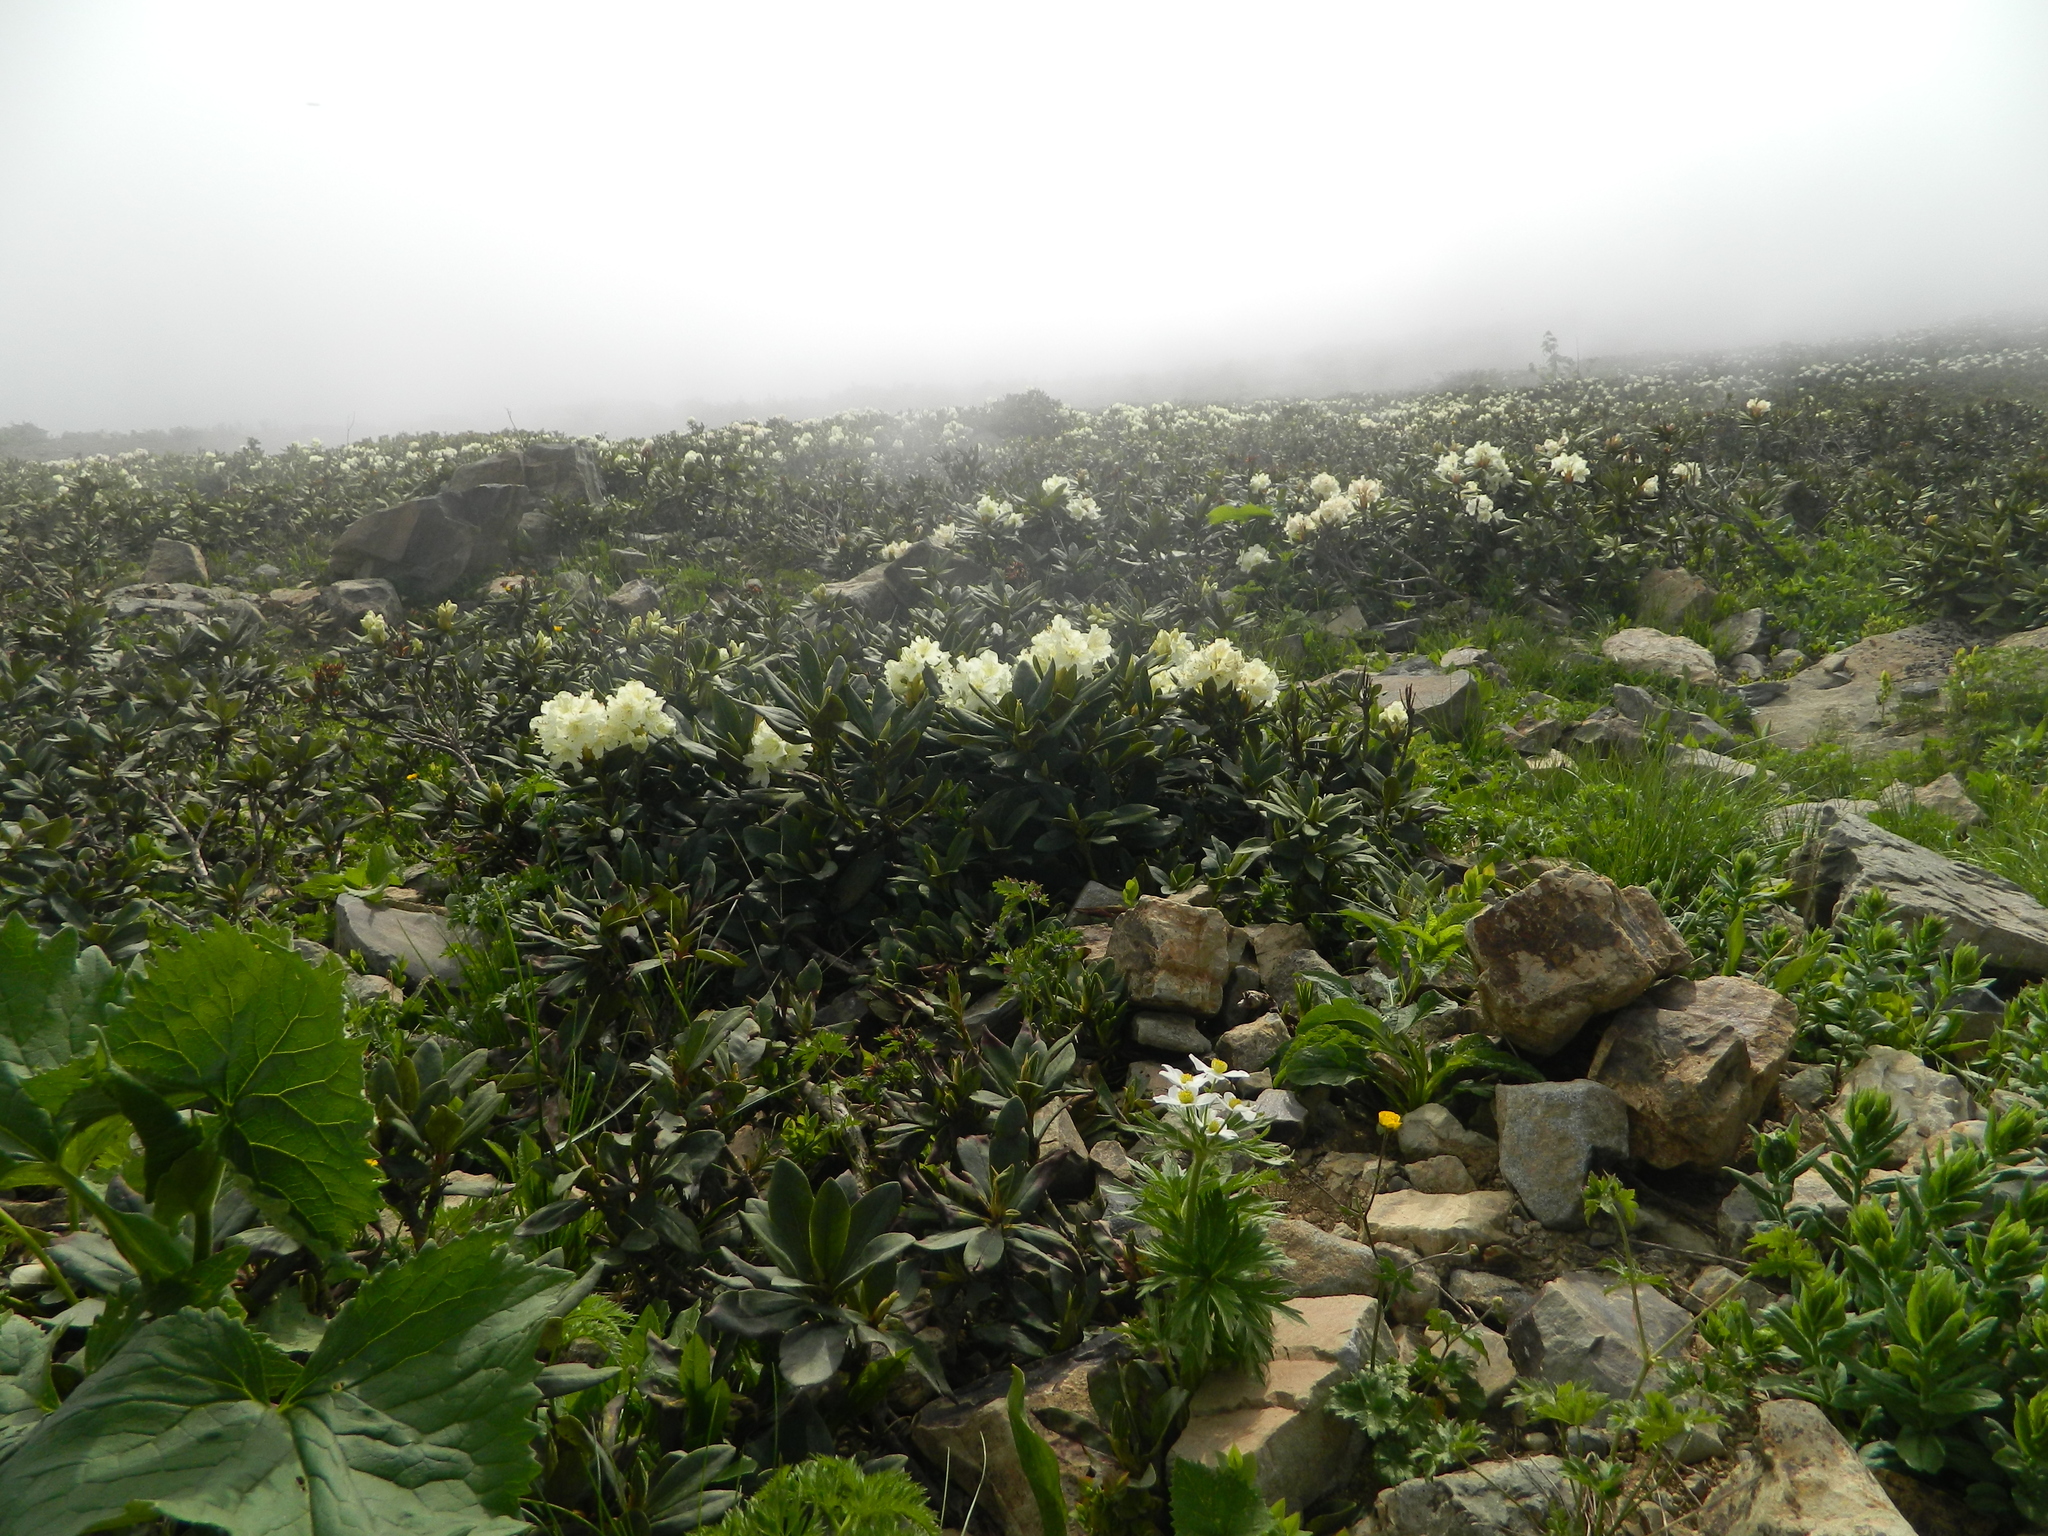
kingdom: Plantae
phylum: Tracheophyta
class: Magnoliopsida
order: Ericales
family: Ericaceae
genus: Rhododendron
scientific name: Rhododendron caucasicum
